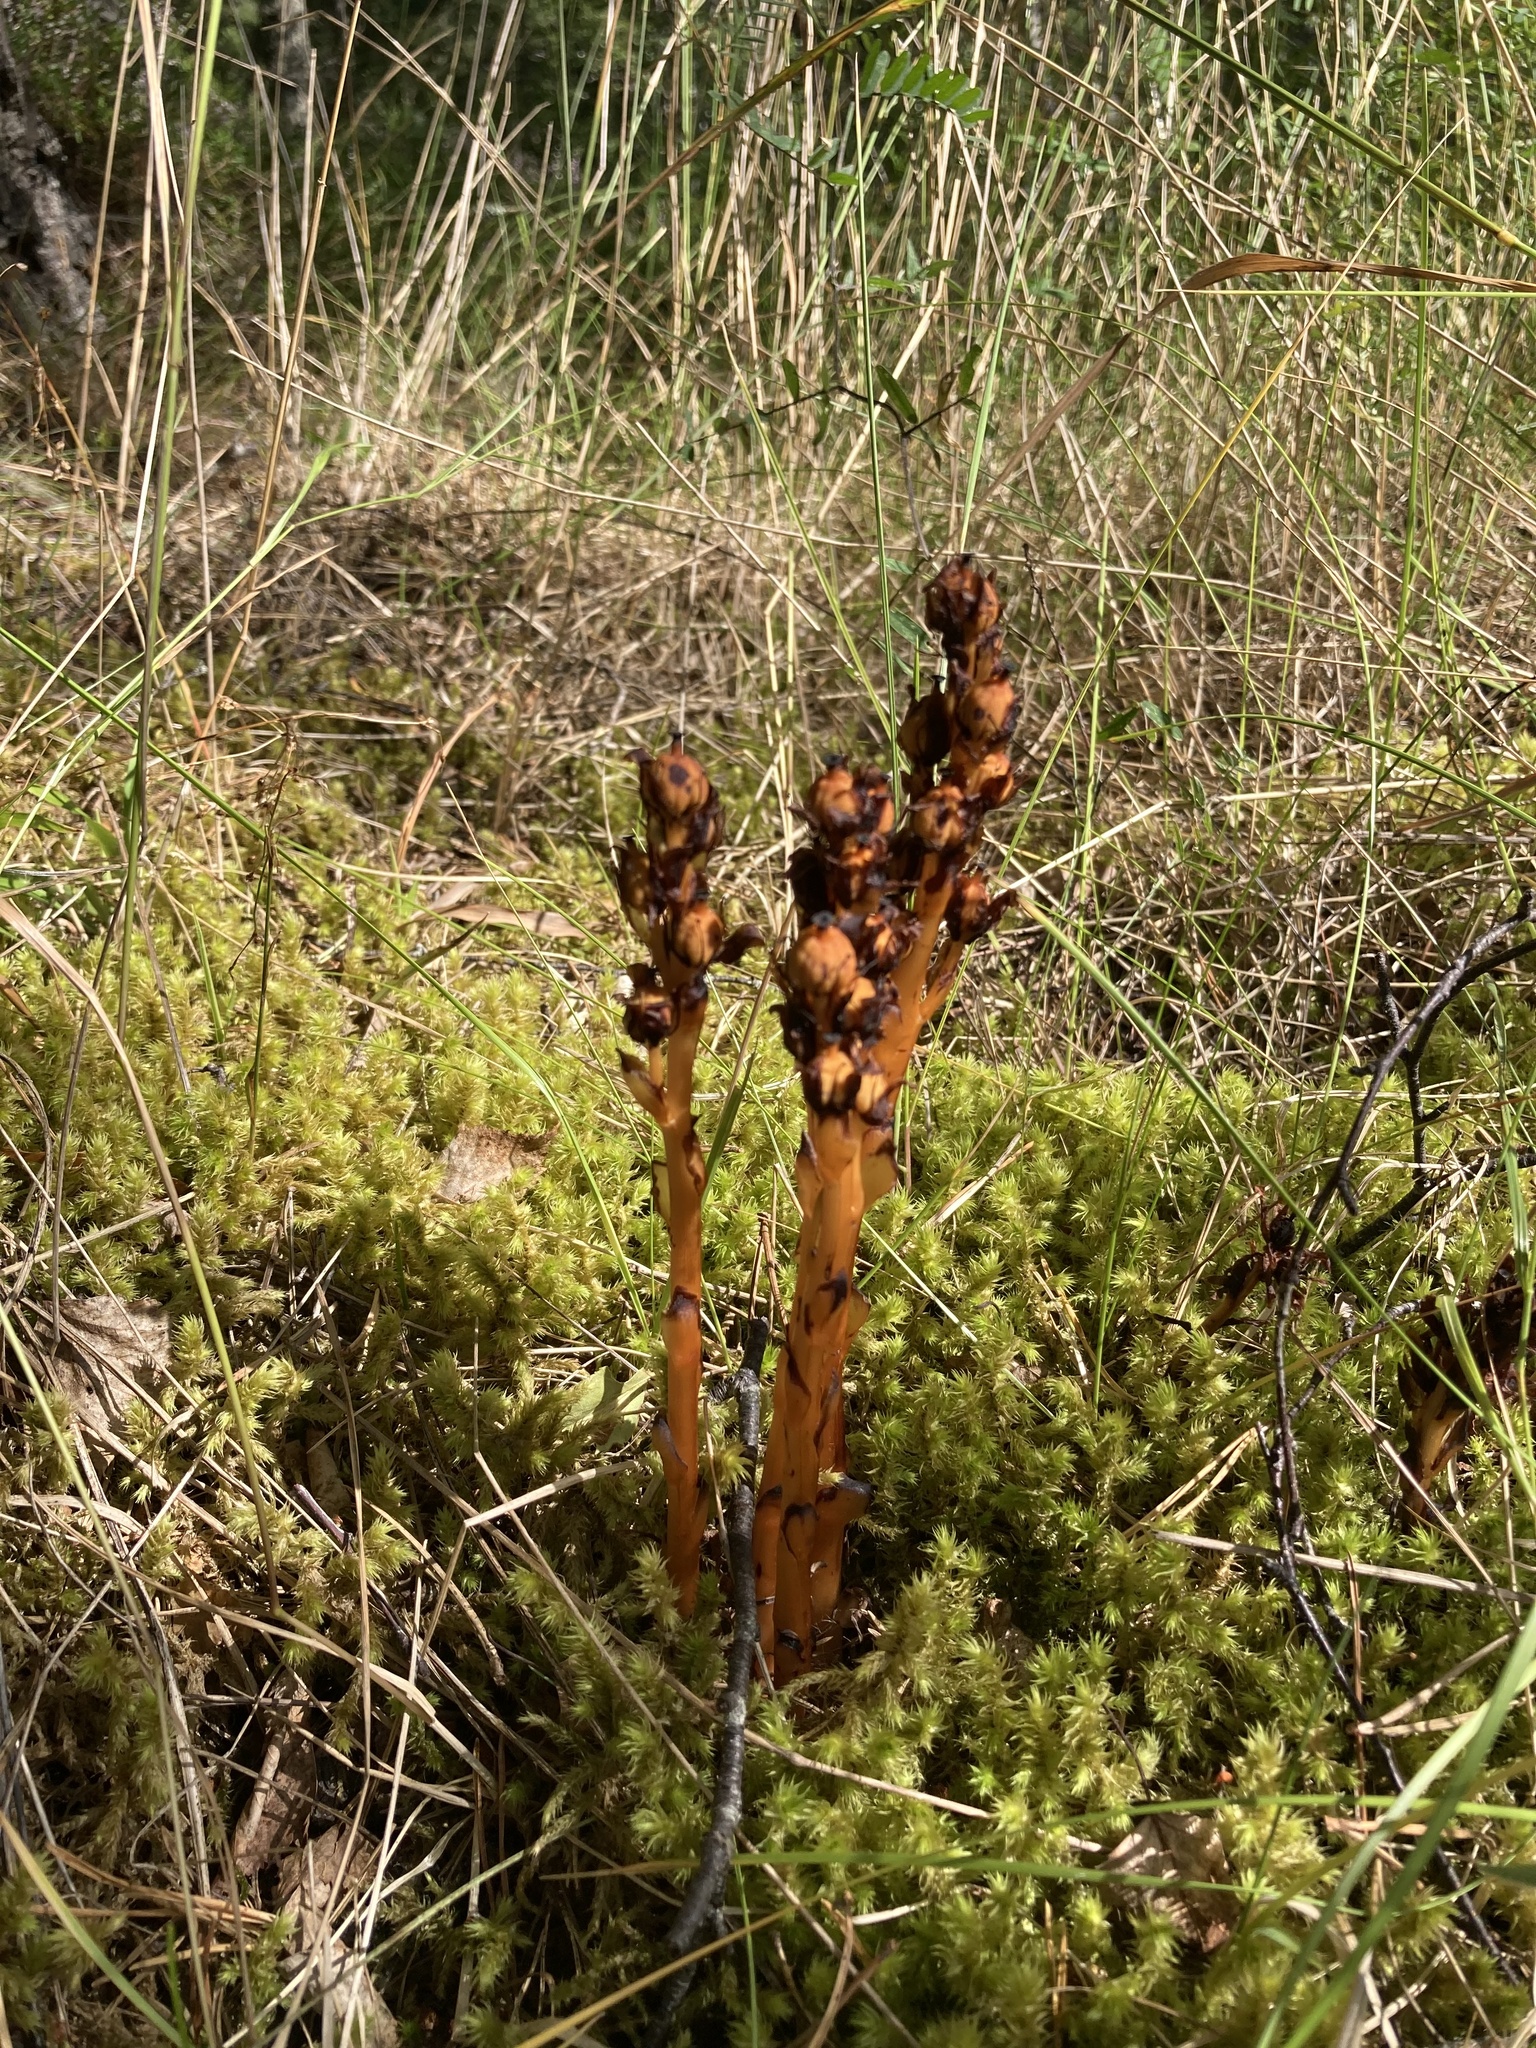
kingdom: Plantae
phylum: Tracheophyta
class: Magnoliopsida
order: Ericales
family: Ericaceae
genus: Hypopitys
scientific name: Hypopitys monotropa
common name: Yellow bird's-nest
